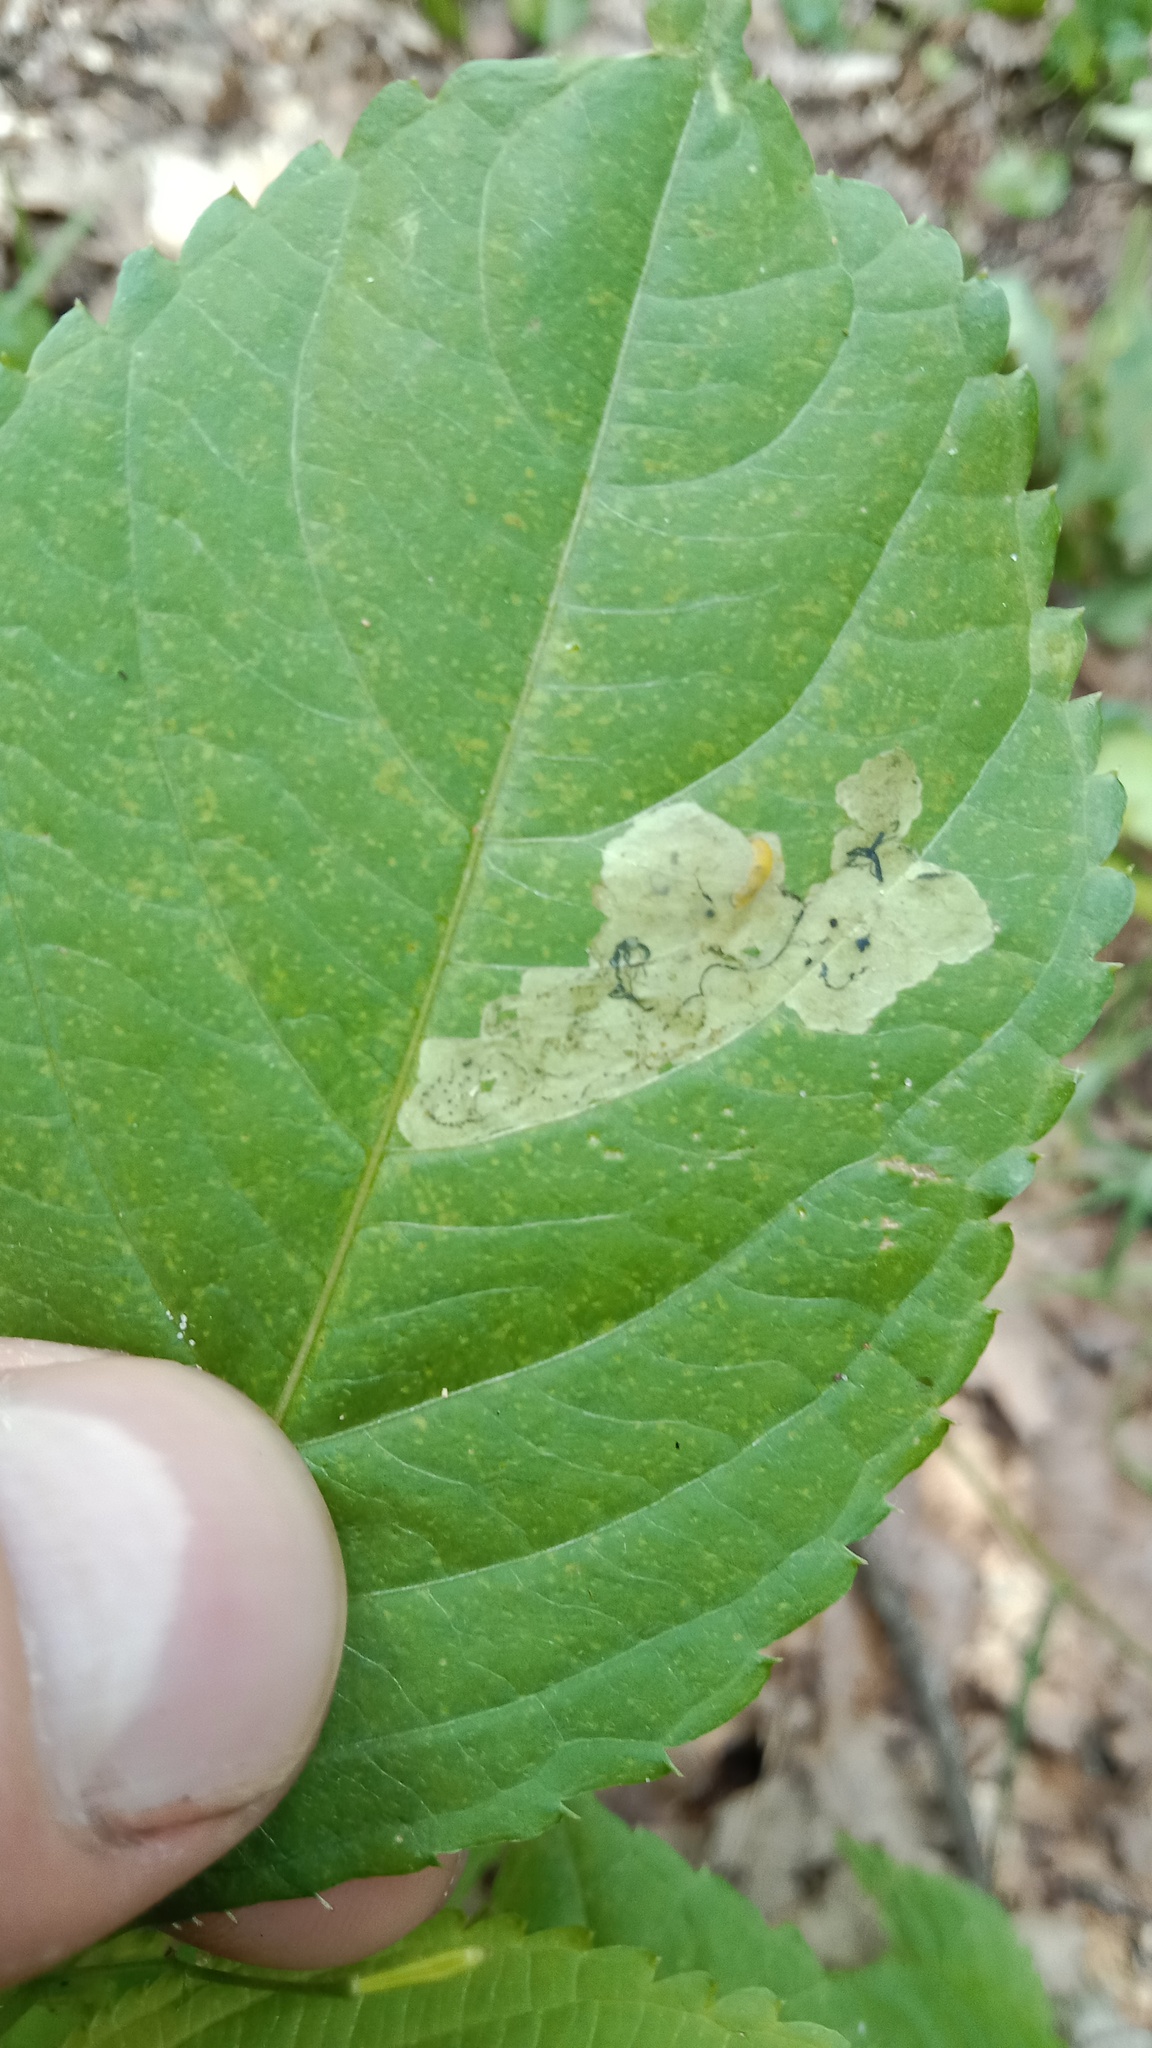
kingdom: Animalia
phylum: Arthropoda
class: Insecta
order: Diptera
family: Agromyzidae
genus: Phytoliriomyza
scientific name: Phytoliriomyza melampyga
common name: Jewelweed leaf-miner fly
